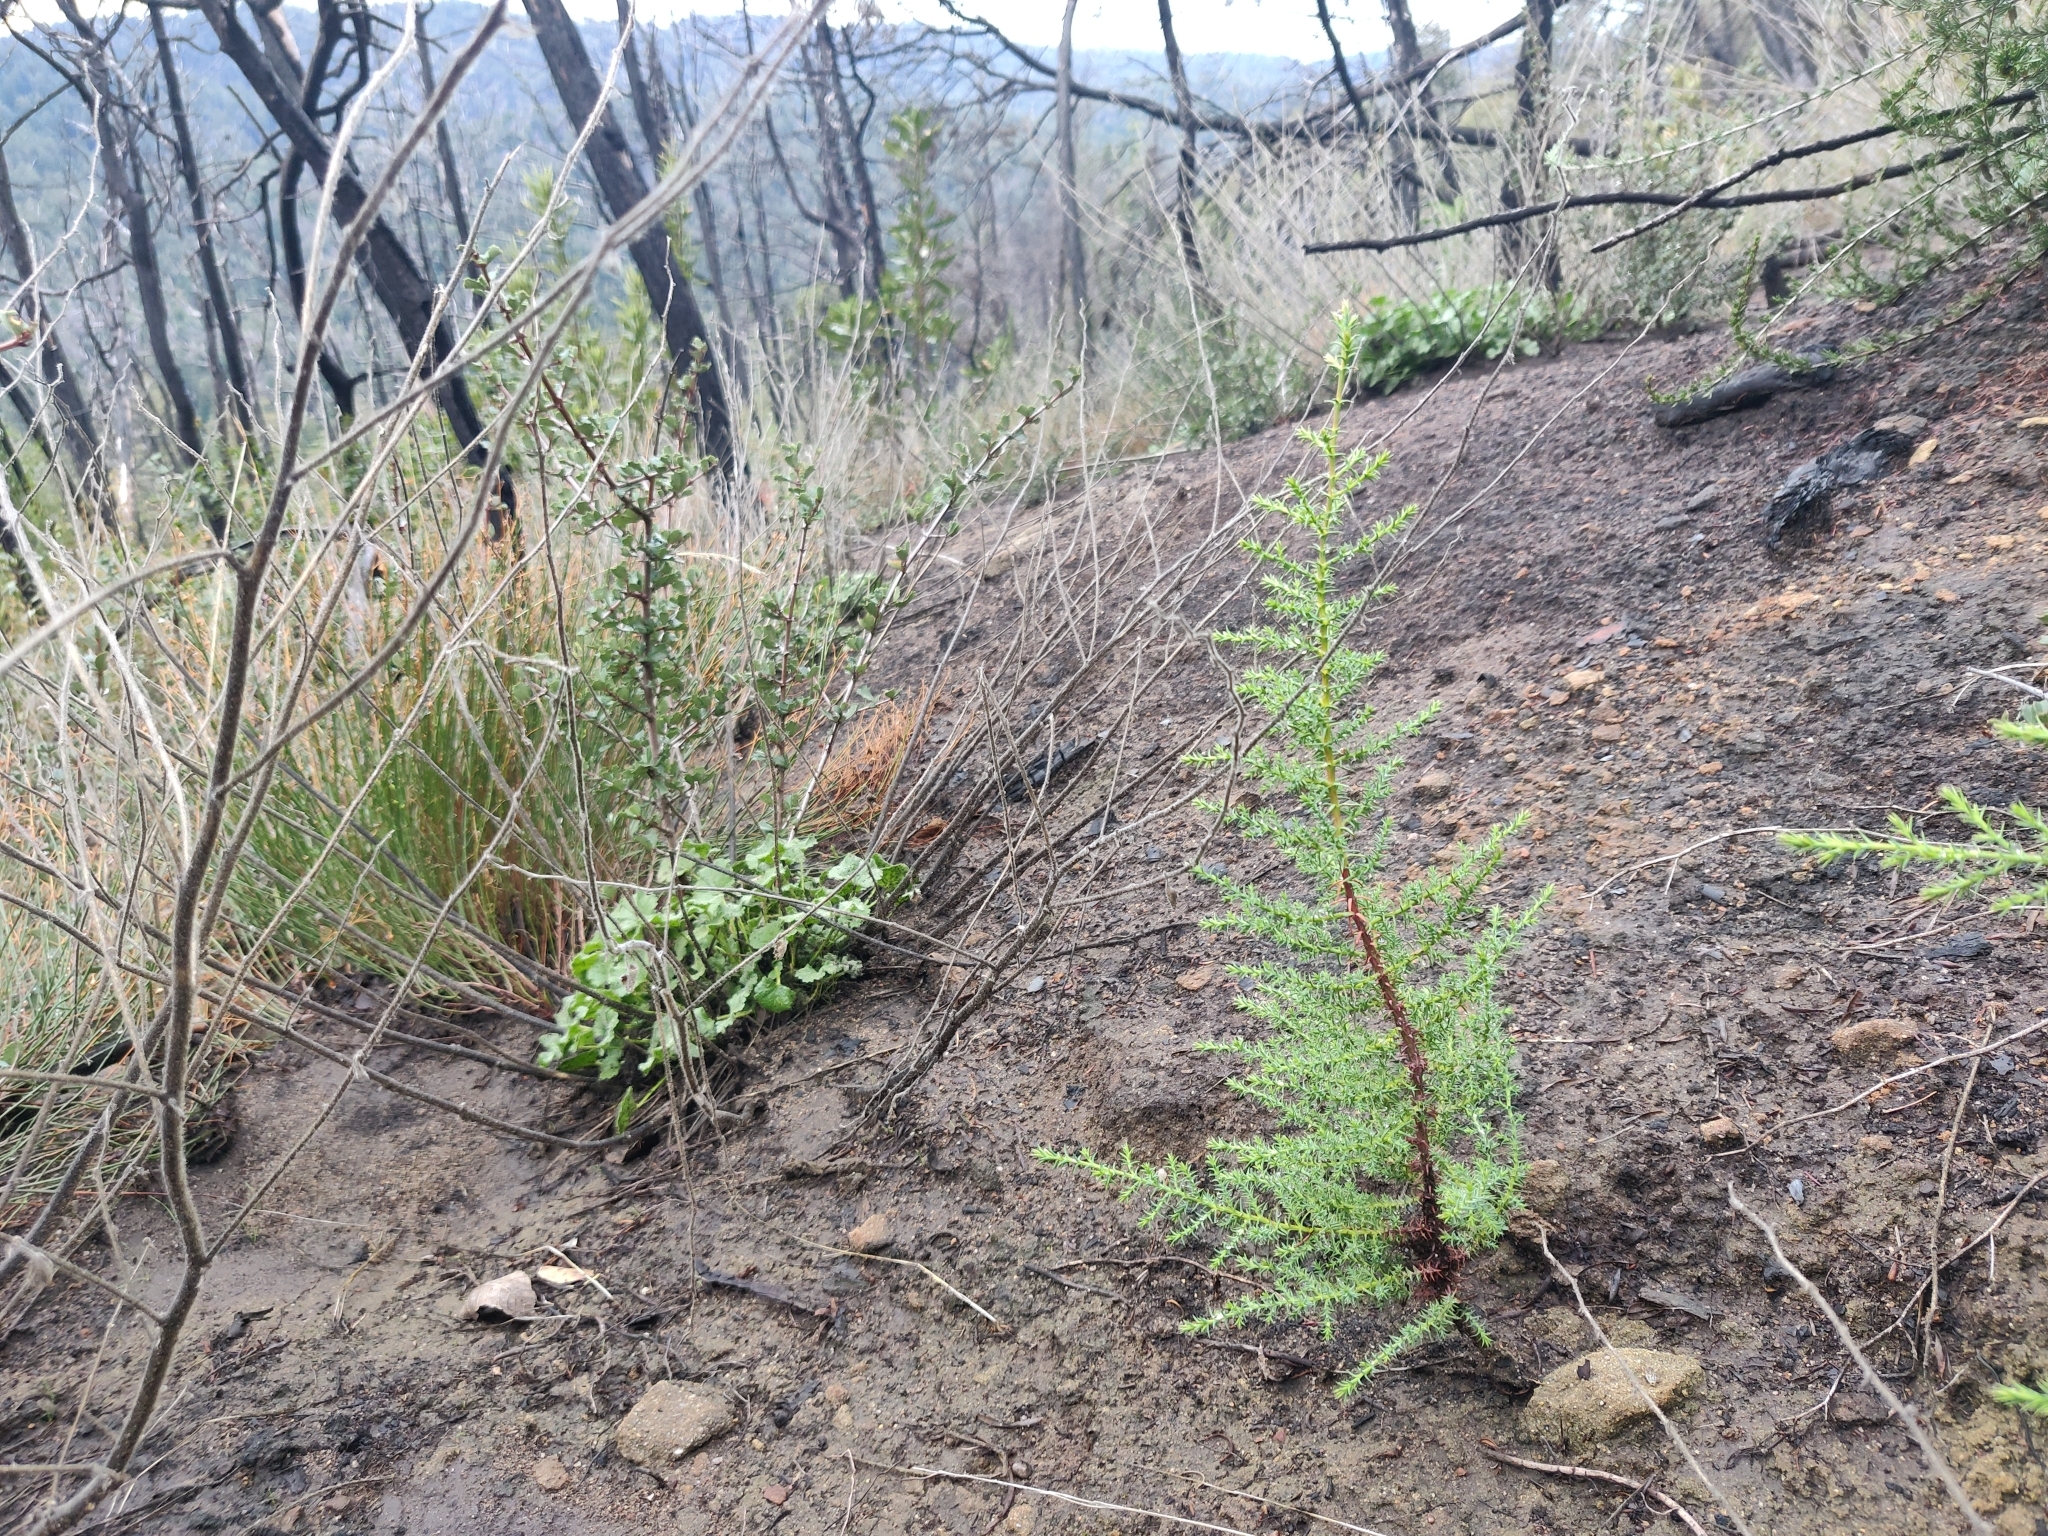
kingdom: Plantae
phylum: Tracheophyta
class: Pinopsida
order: Pinales
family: Cupressaceae
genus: Cupressus
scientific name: Cupressus goveniana
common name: Gowen cypress
